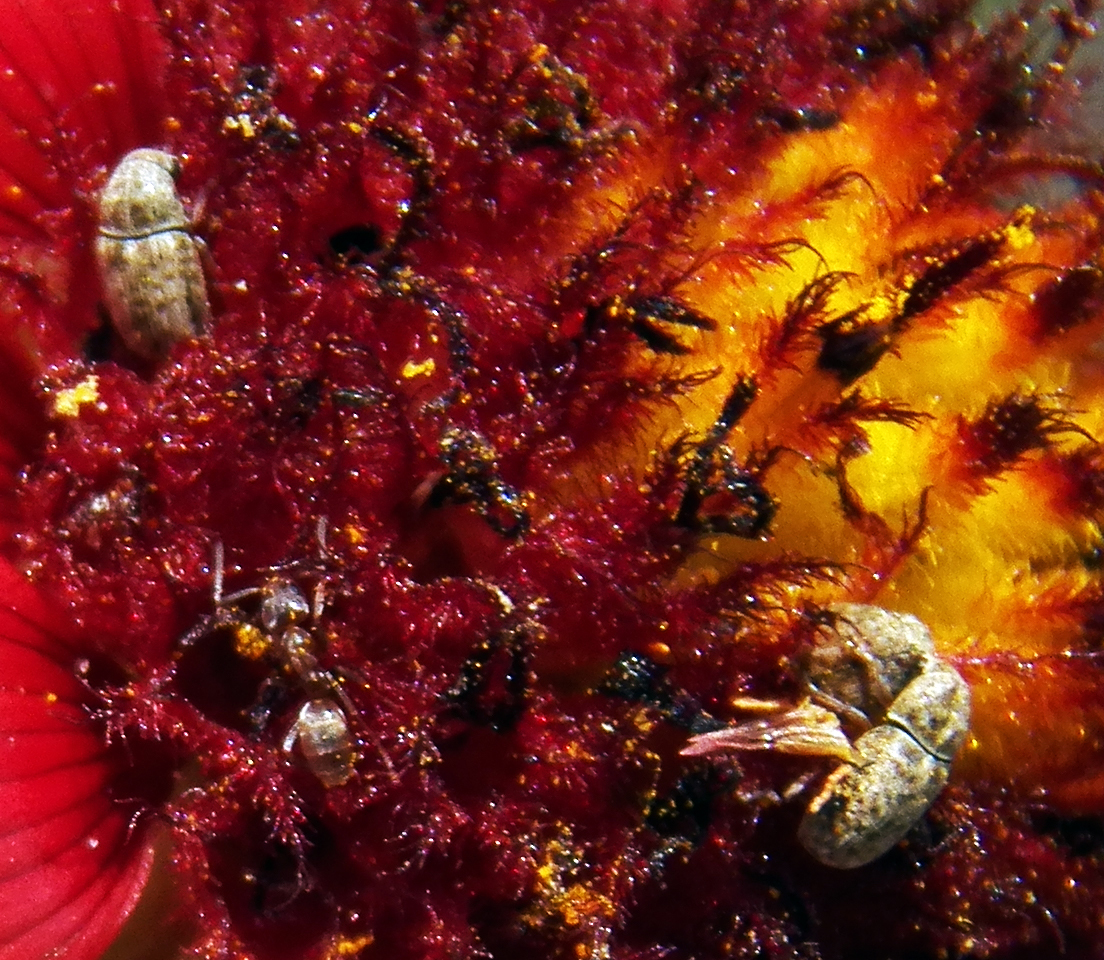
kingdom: Animalia
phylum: Arthropoda
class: Insecta
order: Coleoptera
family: Anthribidae
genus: Trigonorhinus
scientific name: Trigonorhinus limbatus
